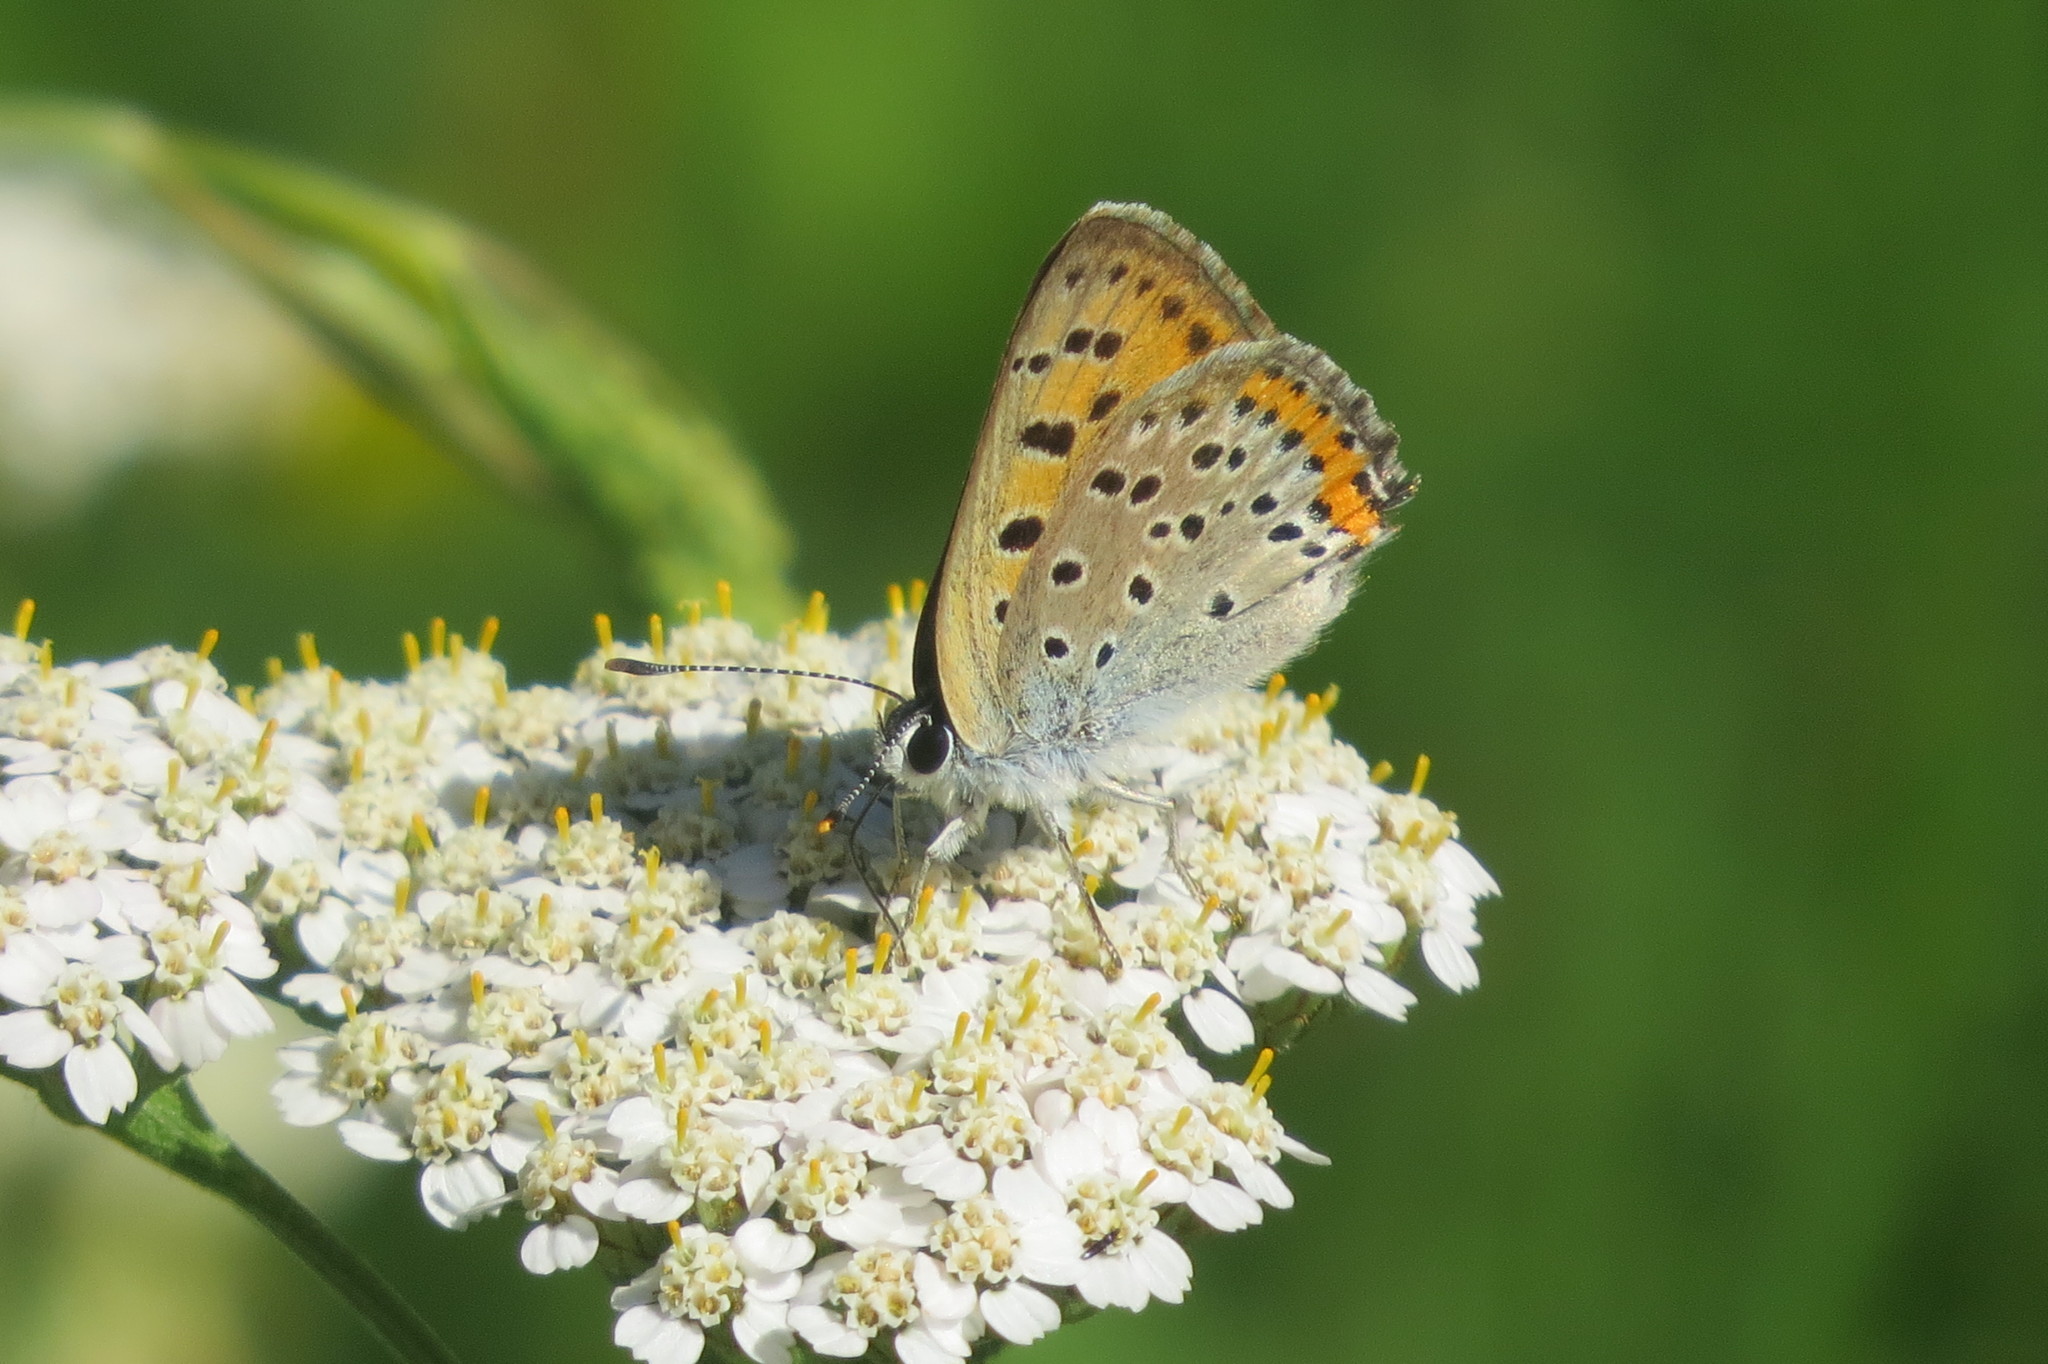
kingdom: Animalia
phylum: Arthropoda
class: Insecta
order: Lepidoptera
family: Lycaenidae
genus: Lycaena
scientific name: Lycaena alciphron
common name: Purple-shot copper
